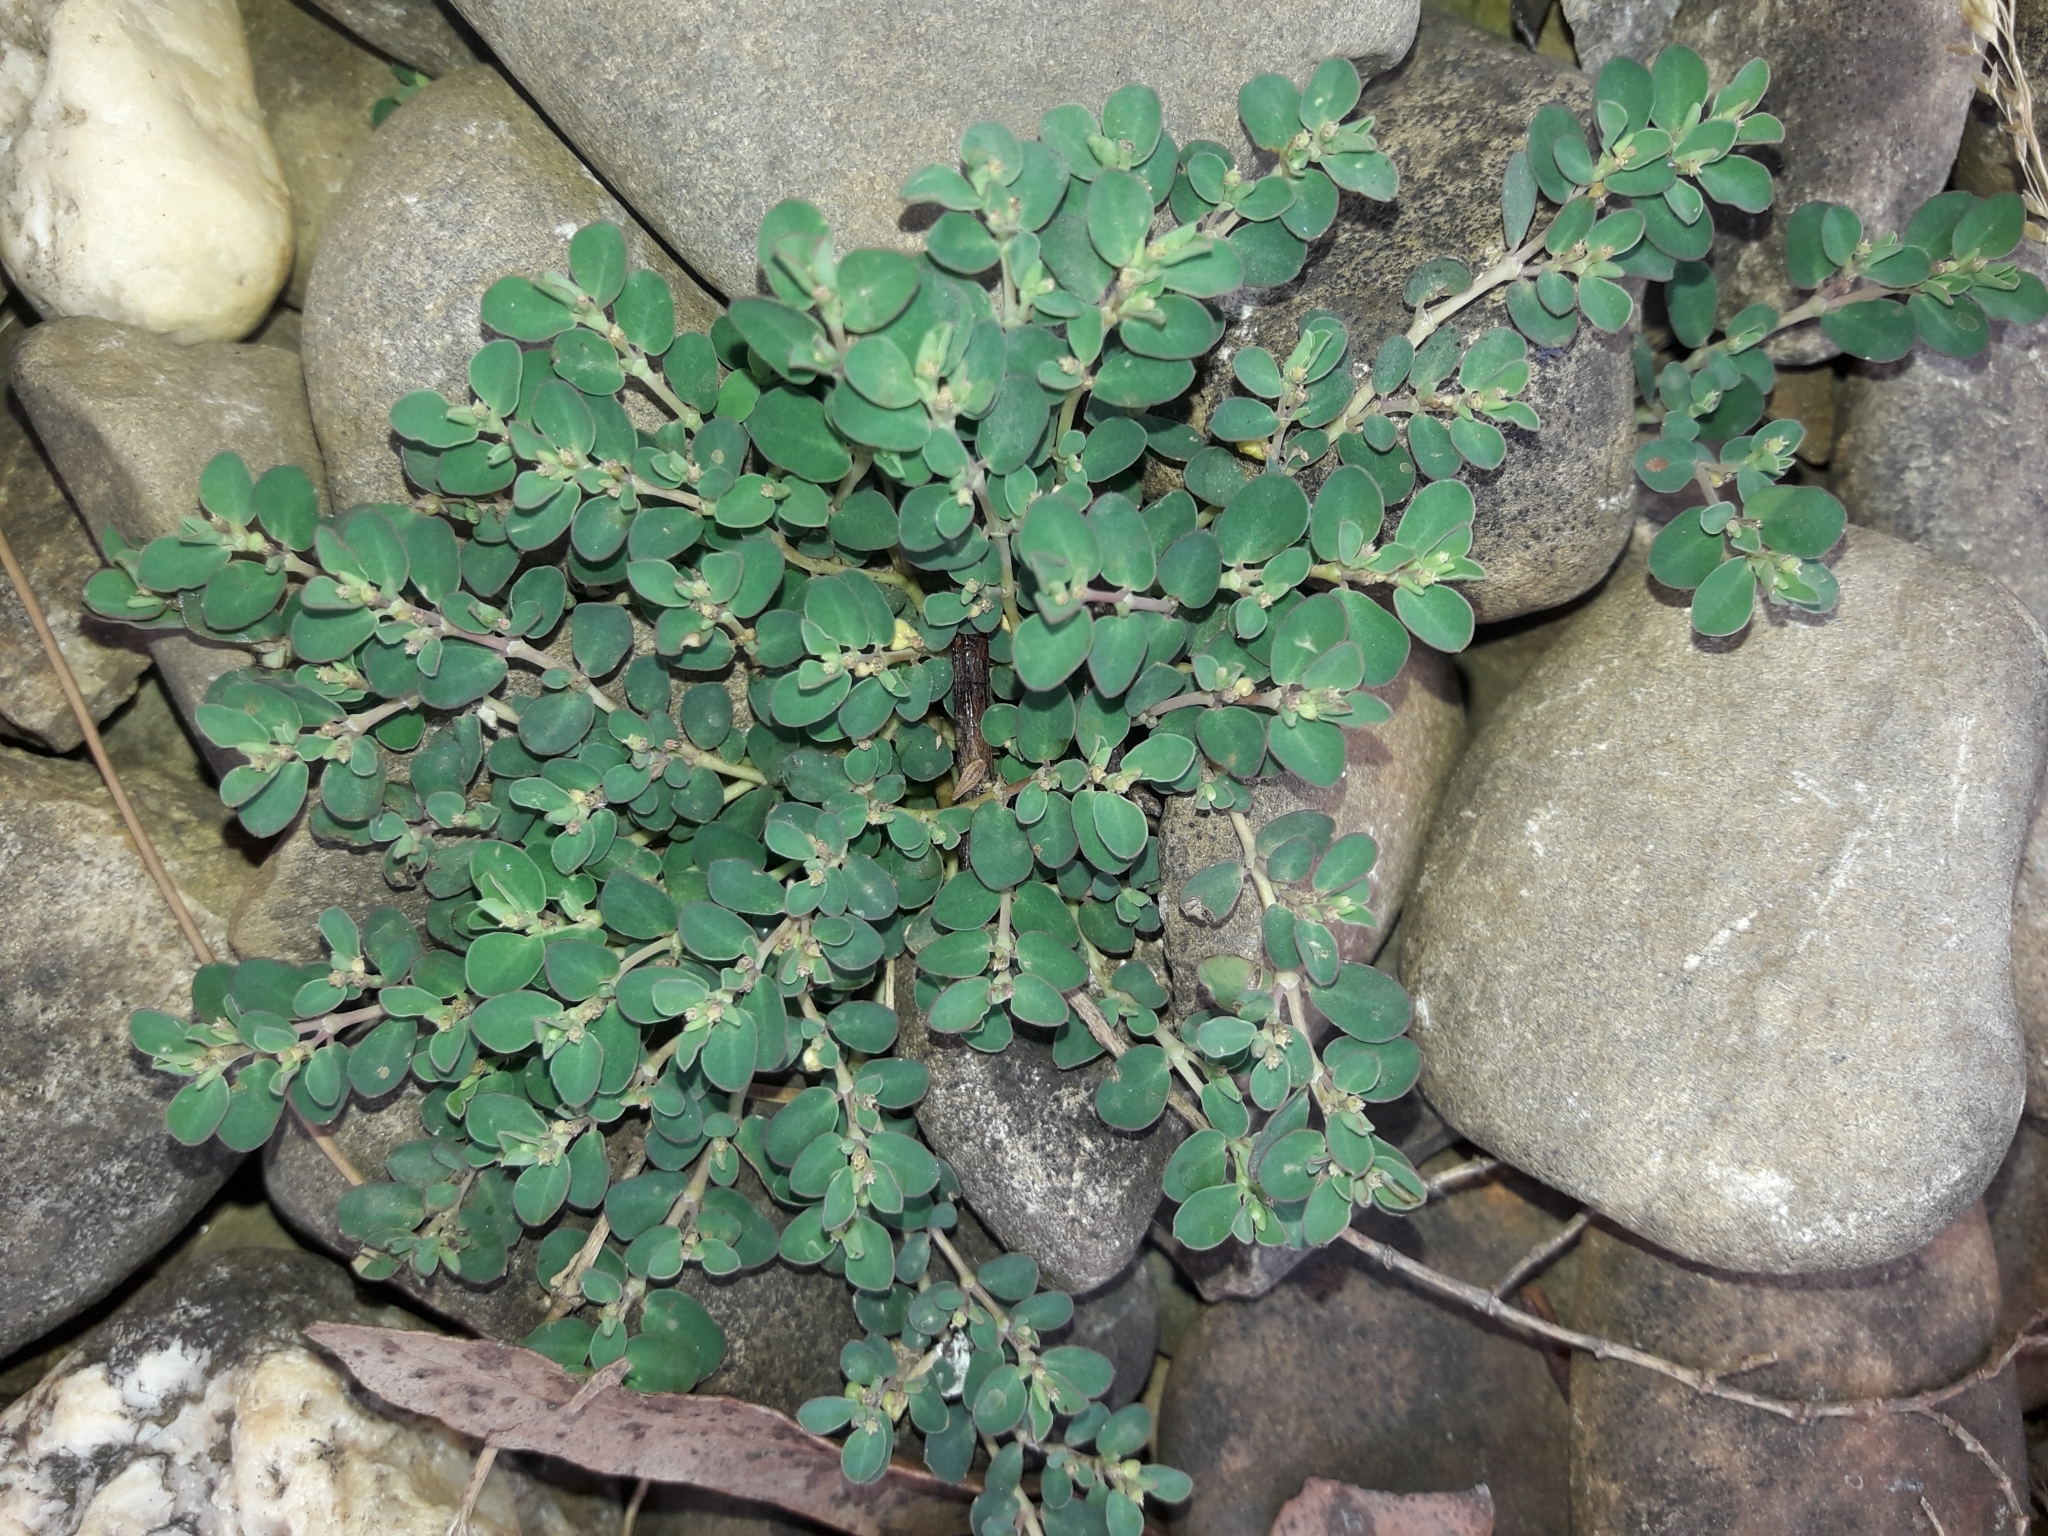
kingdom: Plantae
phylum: Tracheophyta
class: Magnoliopsida
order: Malpighiales
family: Euphorbiaceae
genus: Euphorbia
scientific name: Euphorbia serpens
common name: Matted sandmat
